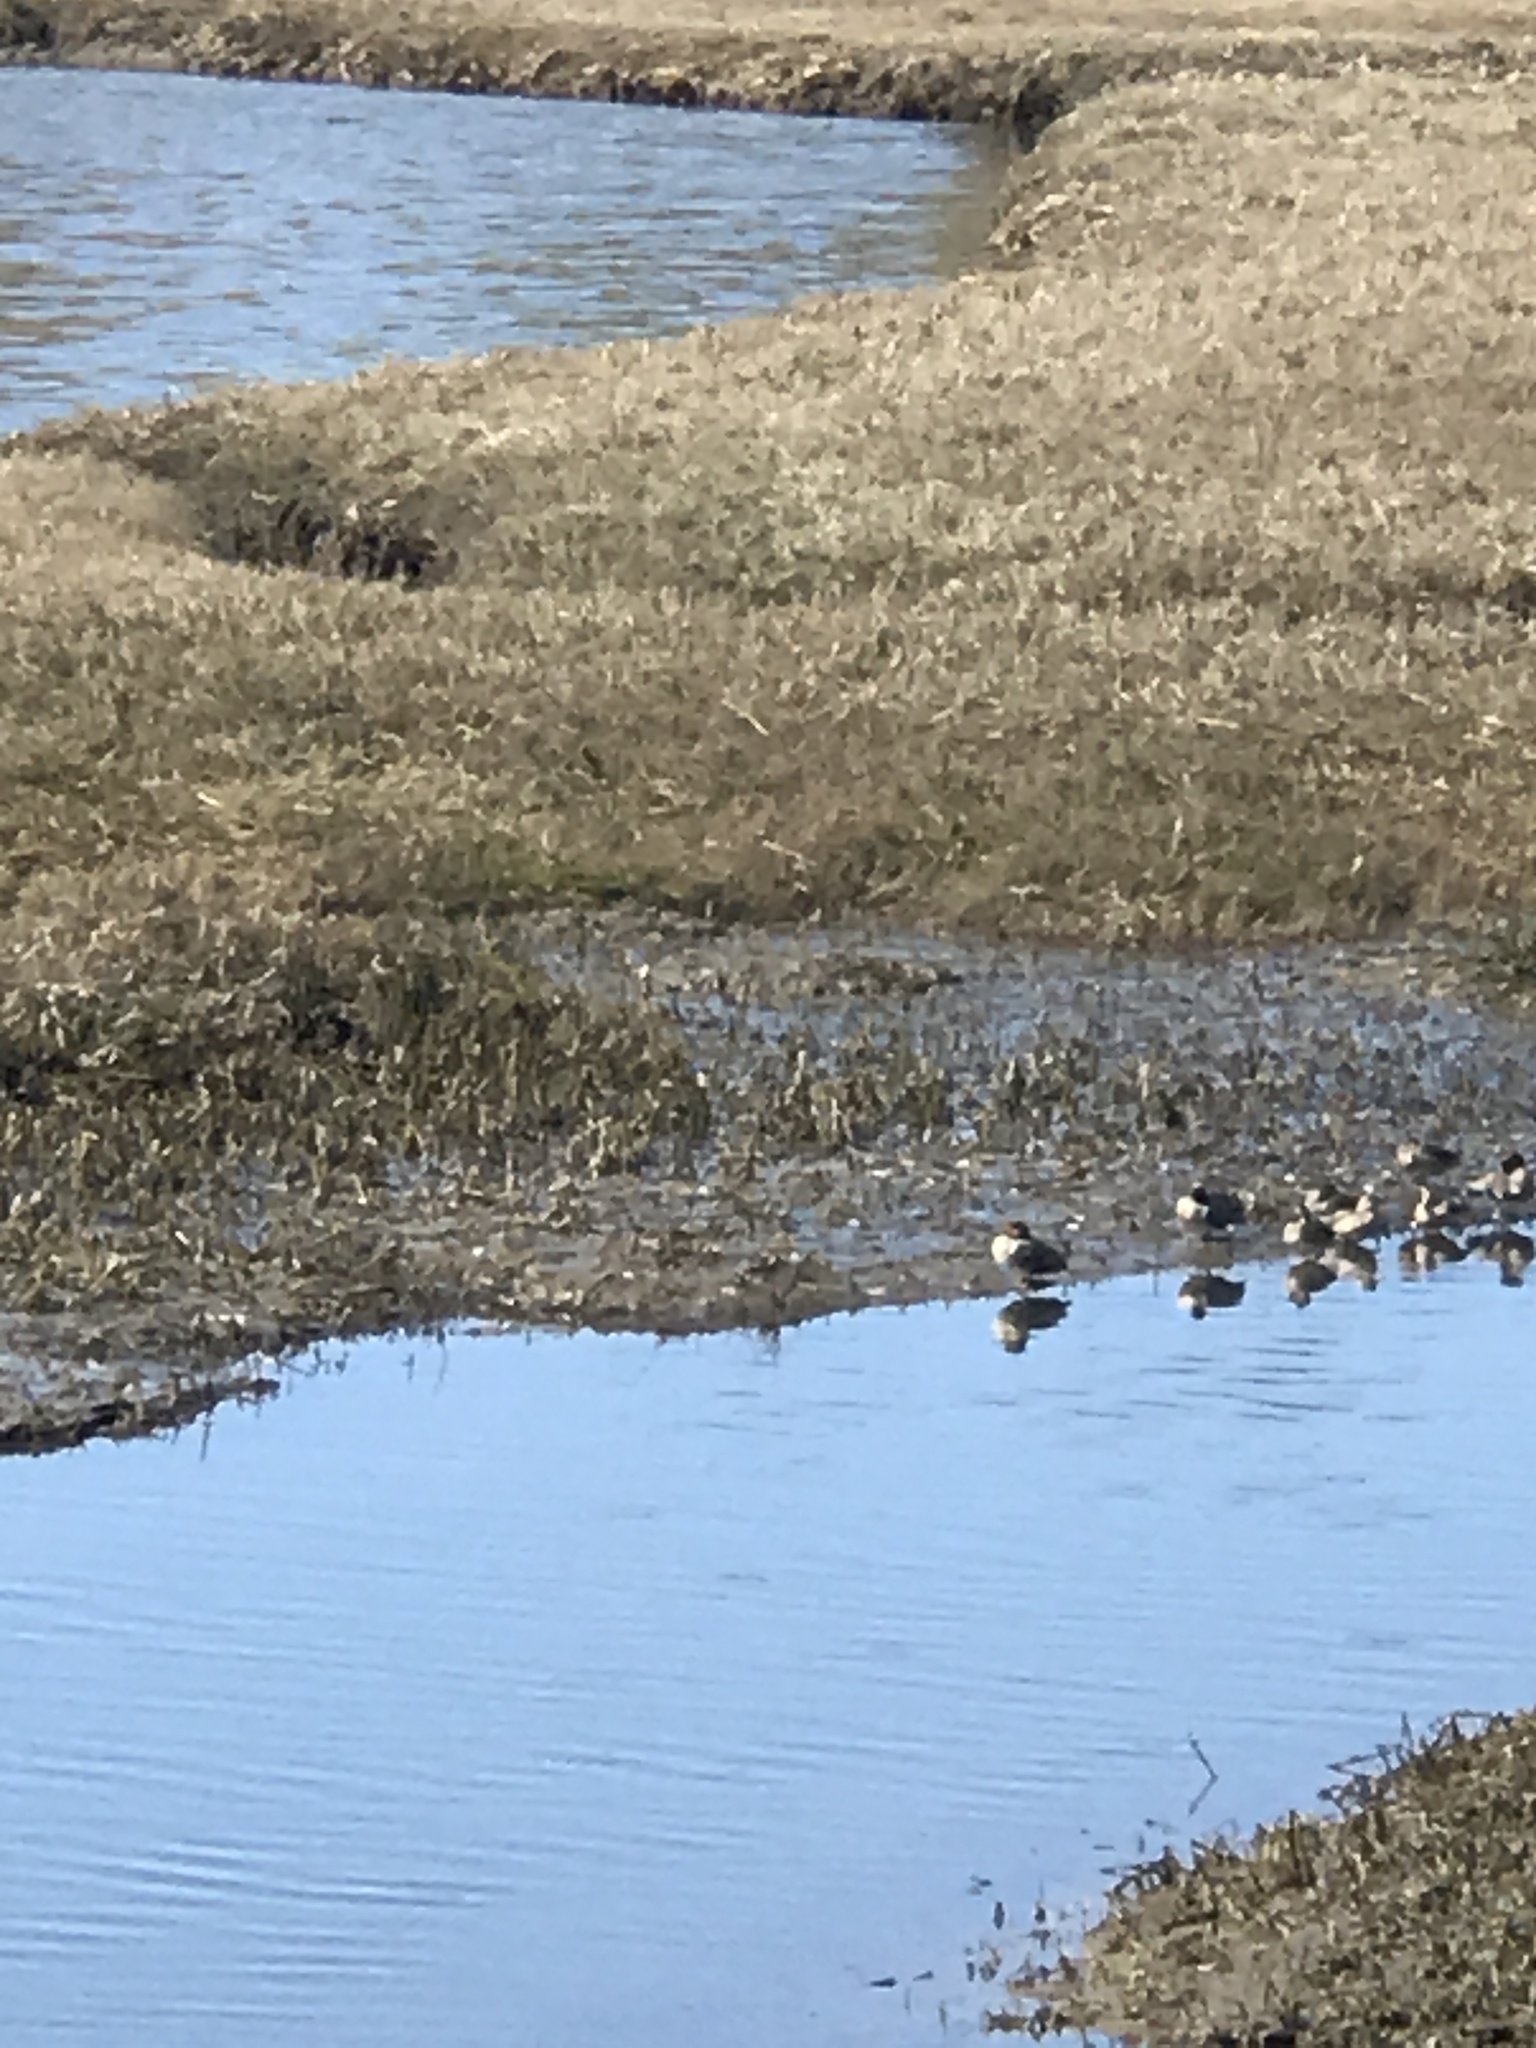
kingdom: Animalia
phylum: Chordata
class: Aves
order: Anseriformes
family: Anatidae
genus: Anas
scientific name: Anas crecca
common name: Eurasian teal
